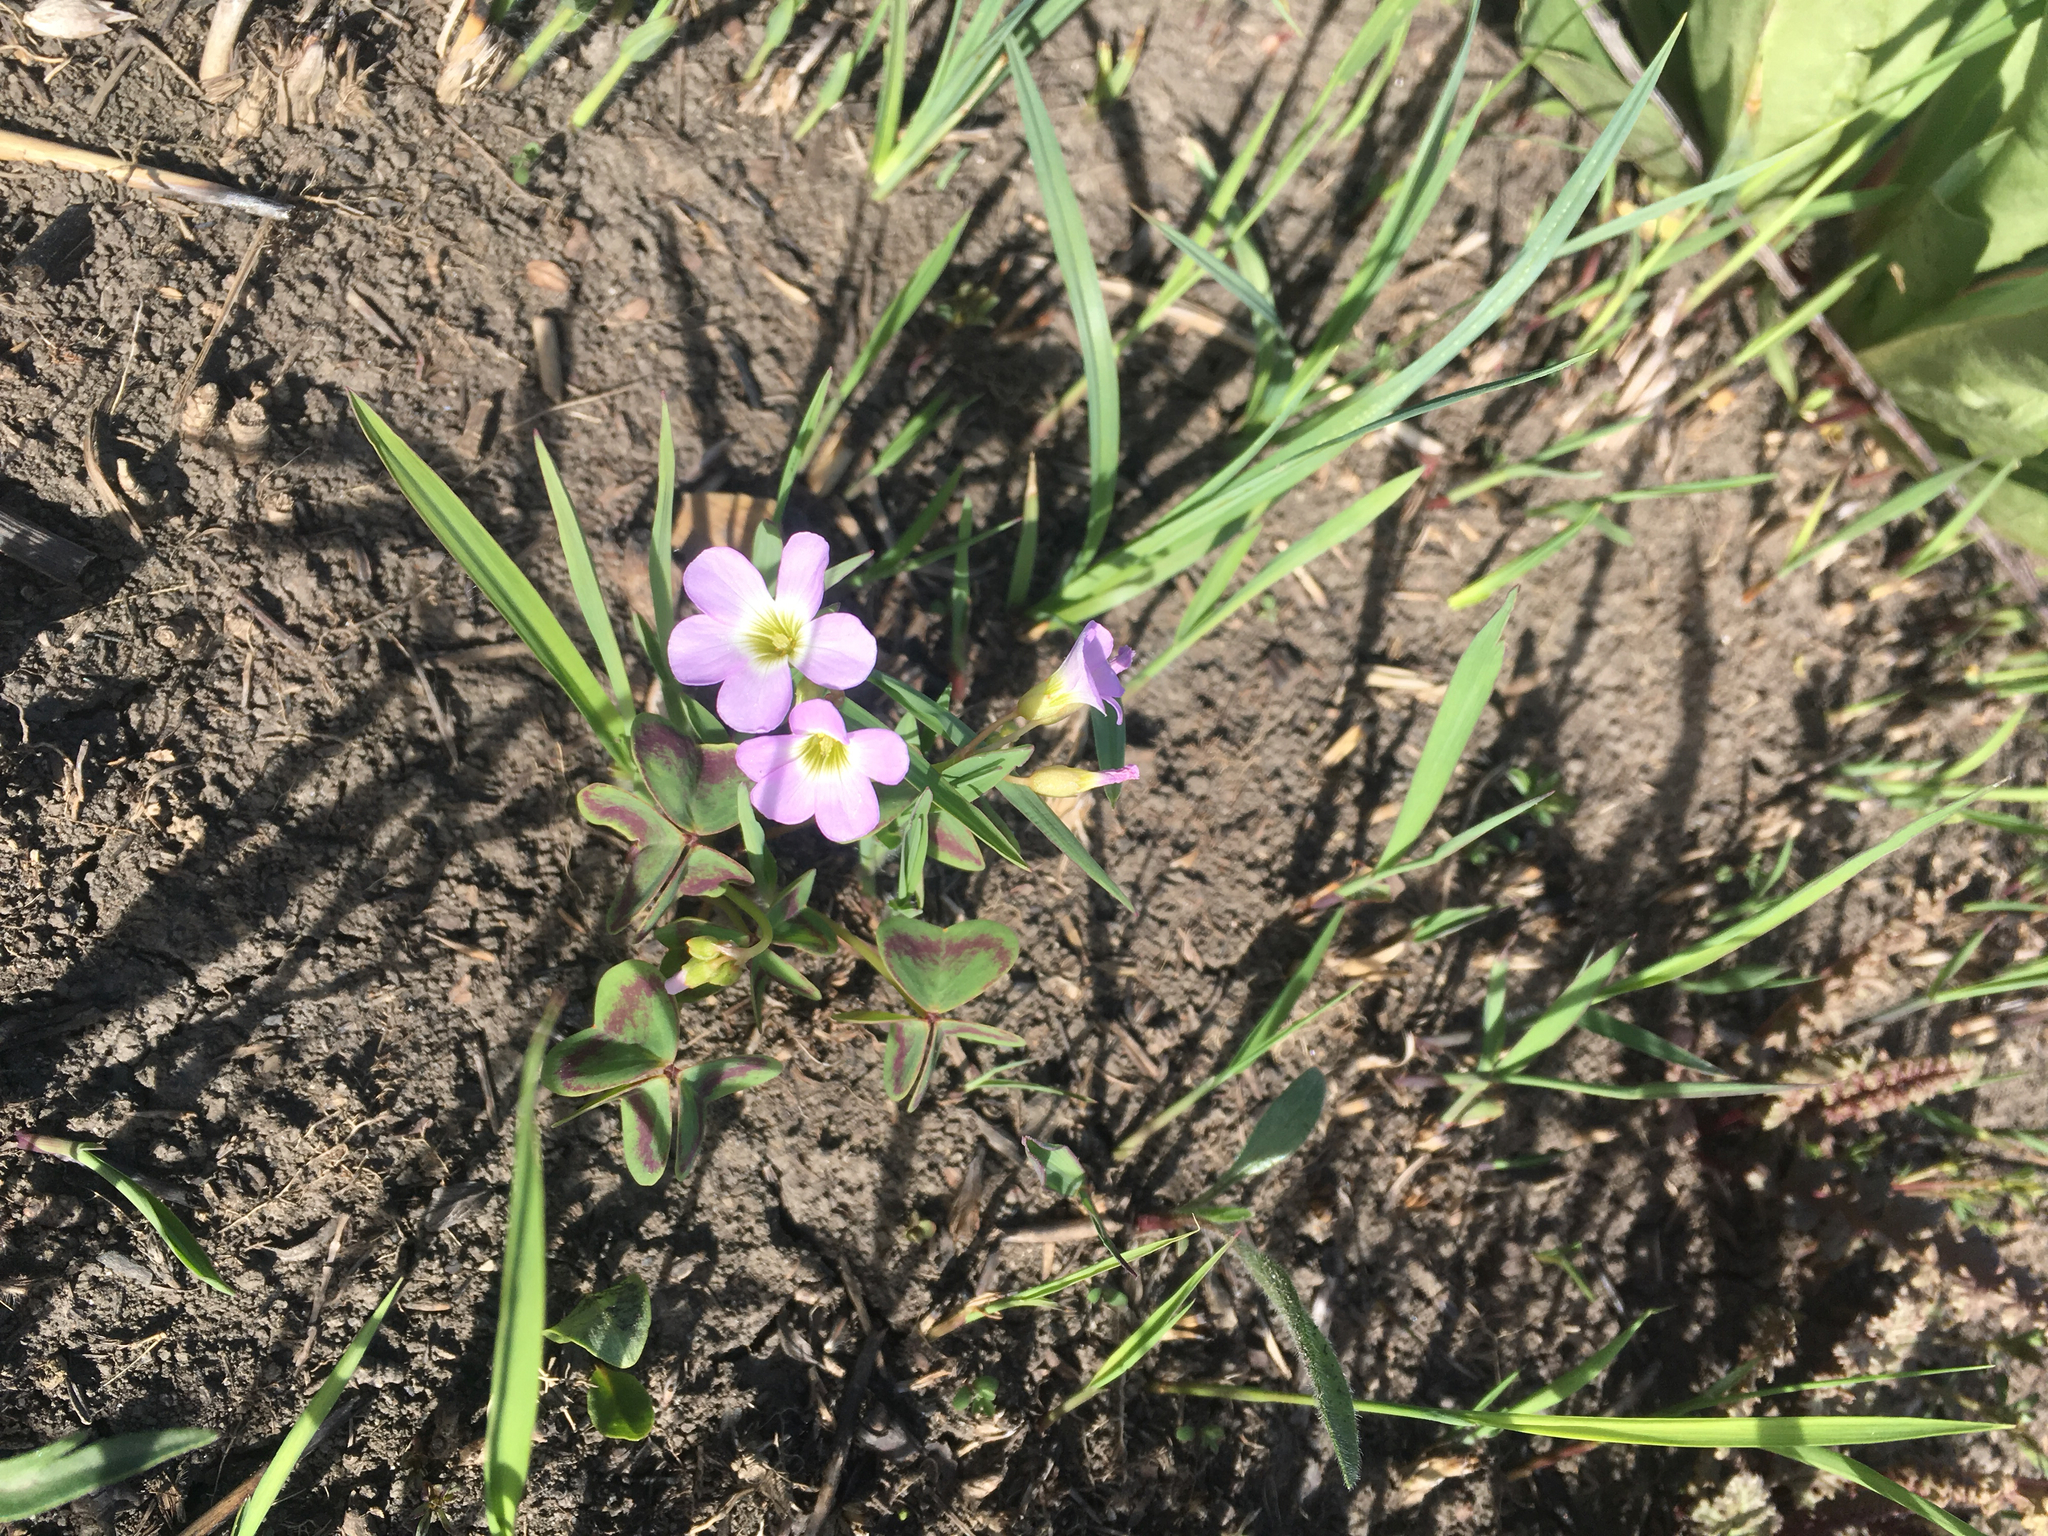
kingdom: Plantae
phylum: Tracheophyta
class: Magnoliopsida
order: Oxalidales
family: Oxalidaceae
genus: Oxalis
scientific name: Oxalis violacea
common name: Violet wood-sorrel
